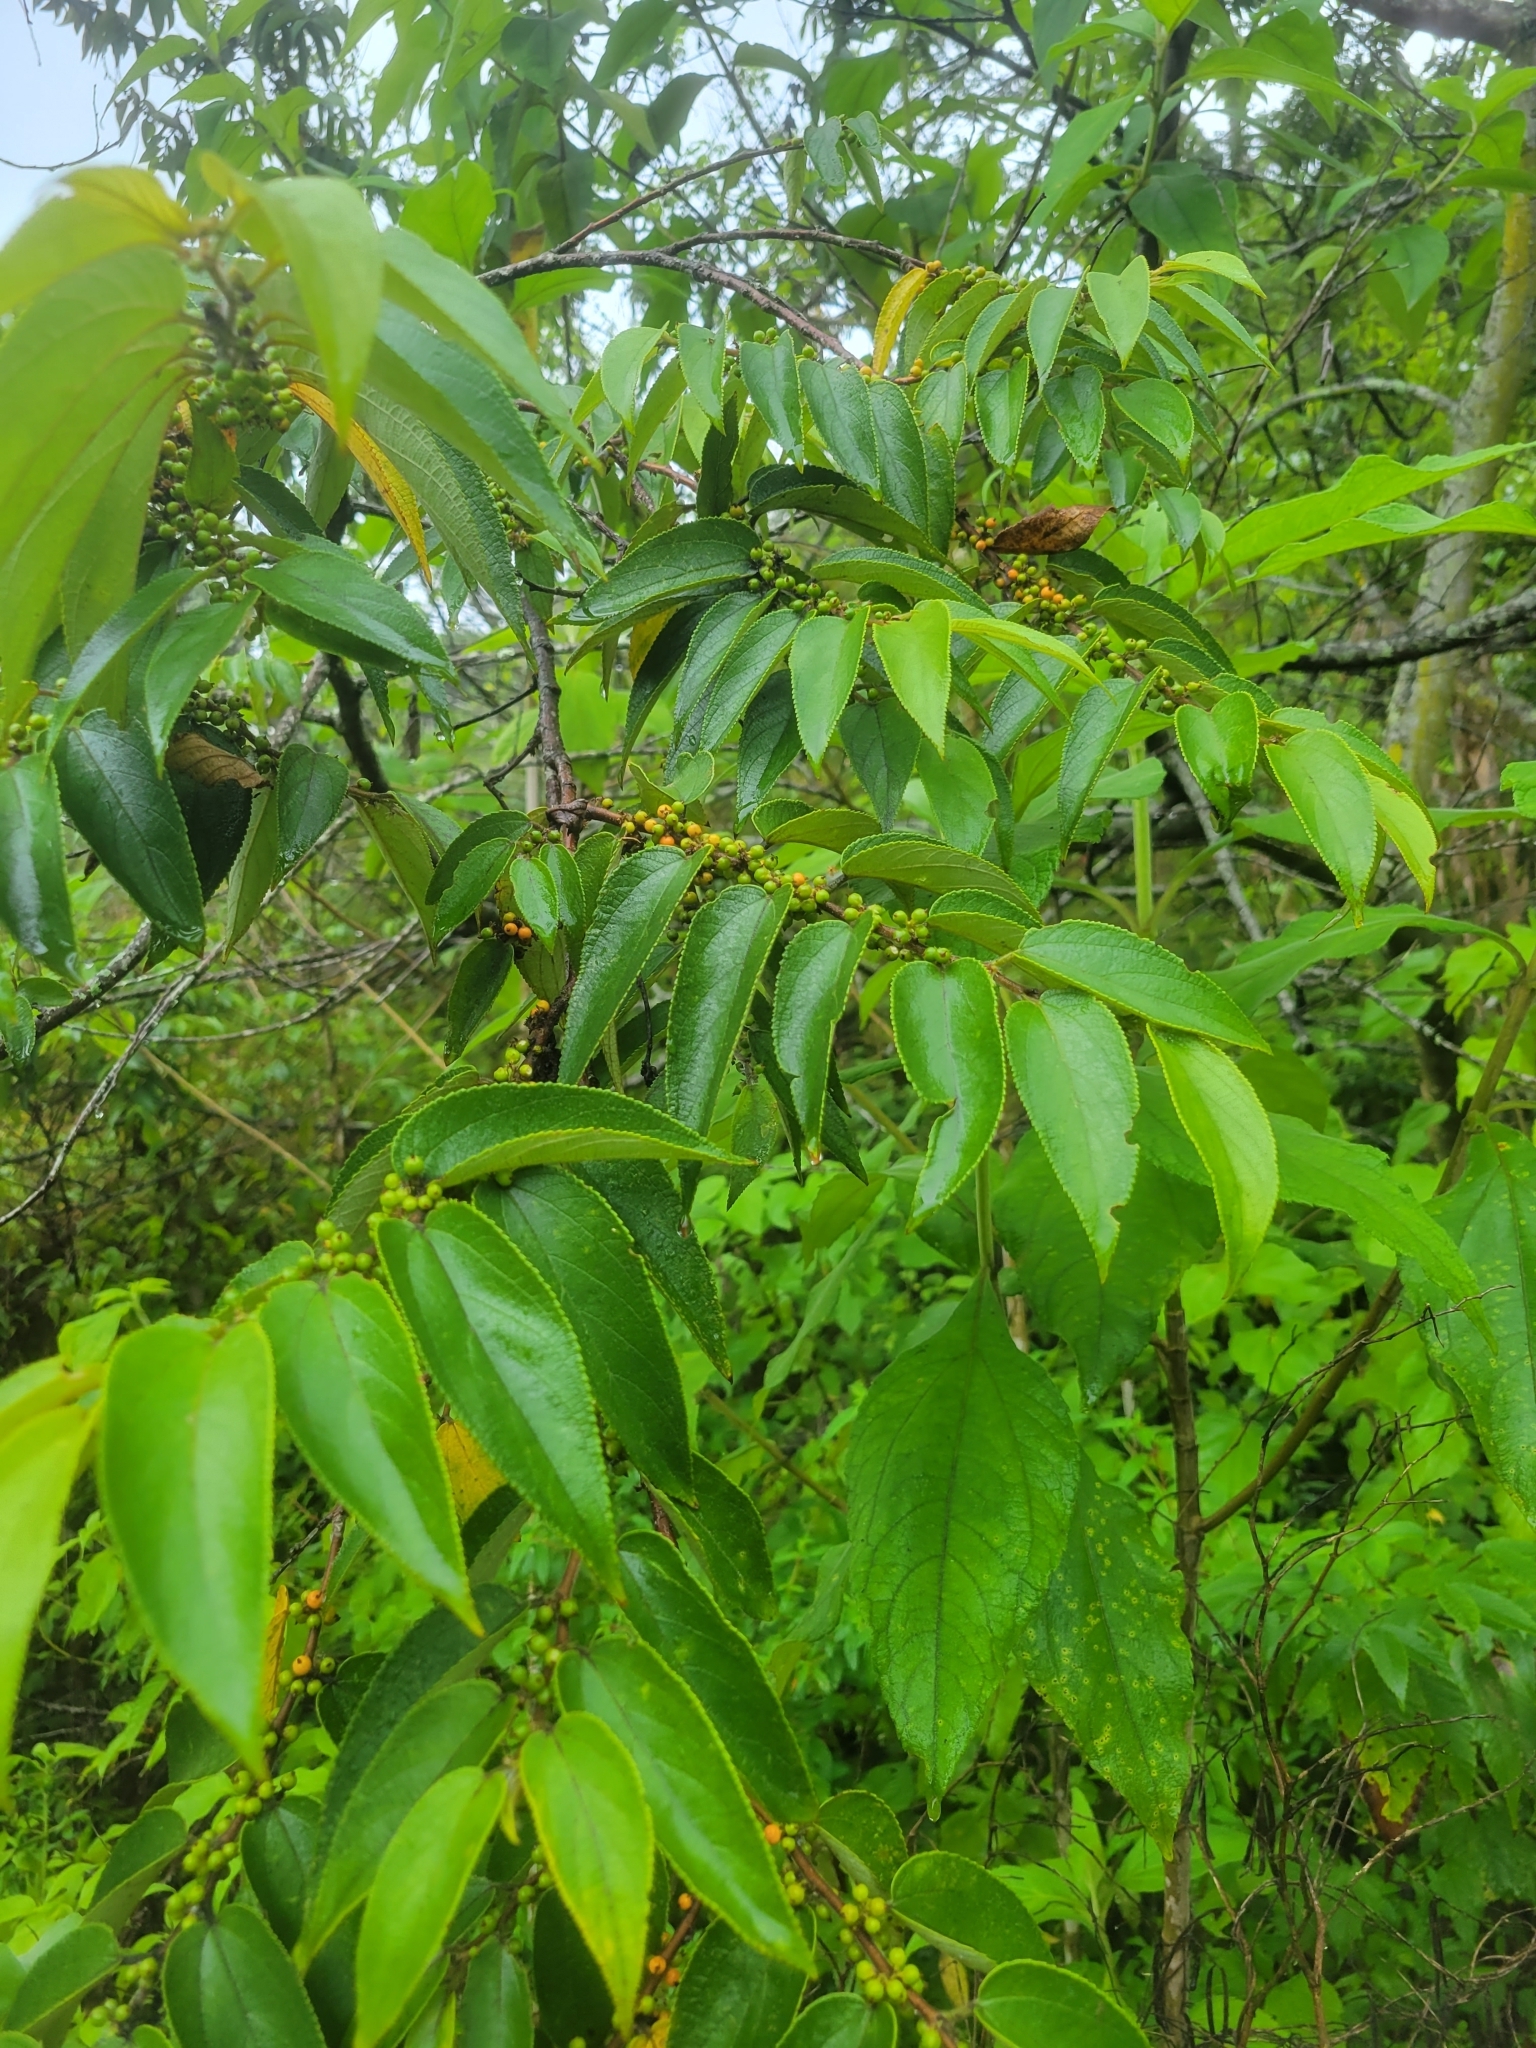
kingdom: Plantae
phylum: Tracheophyta
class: Magnoliopsida
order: Rosales
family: Cannabaceae
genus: Trema
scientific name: Trema micranthum
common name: Jamaican nettletree
